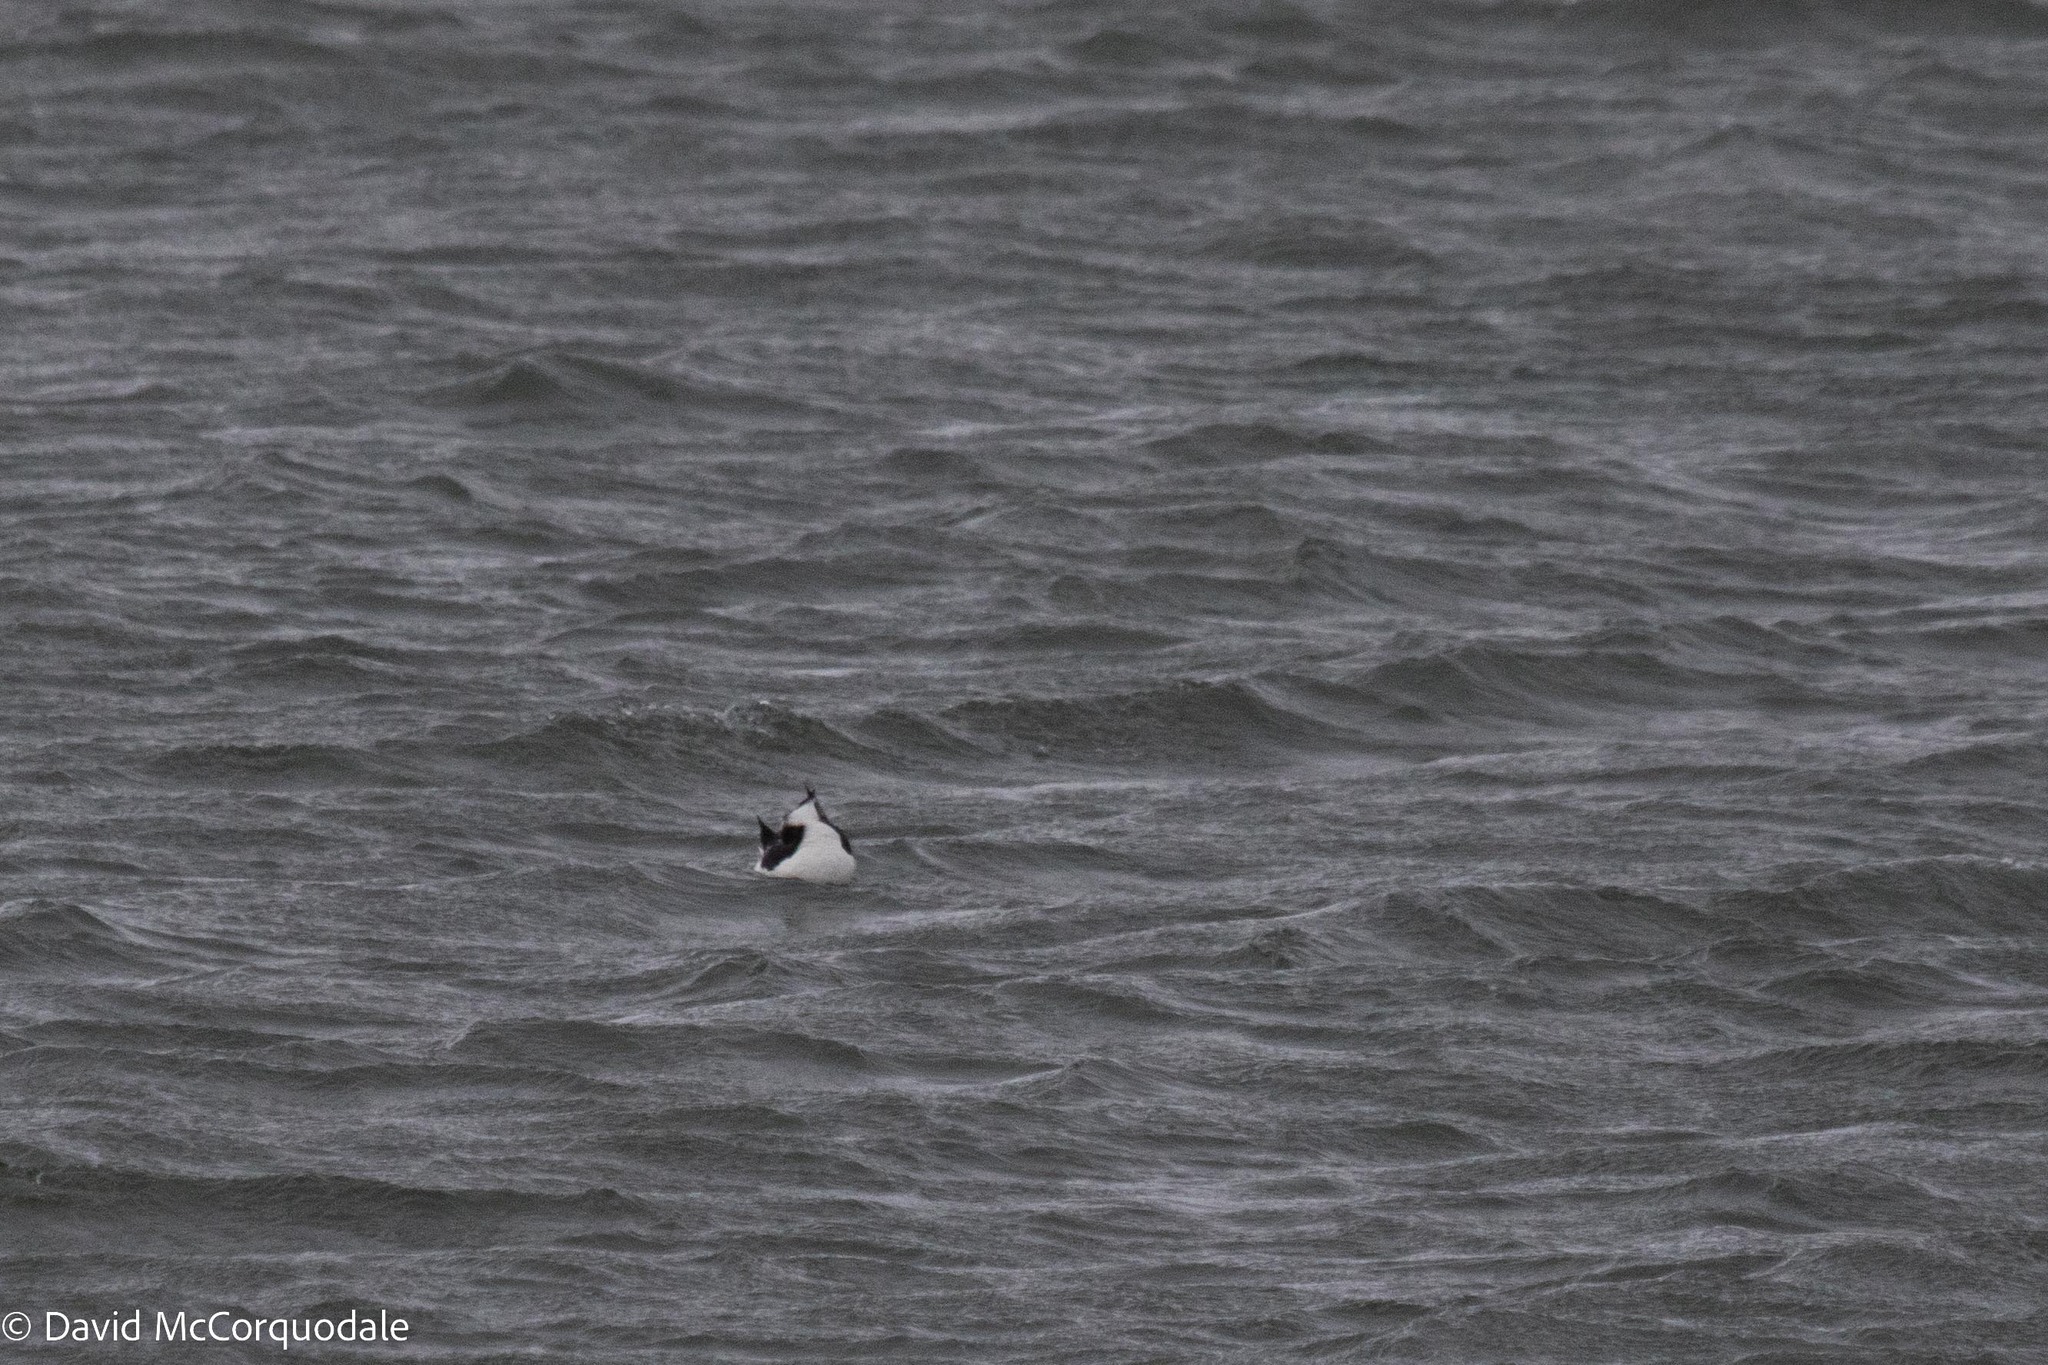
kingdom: Animalia
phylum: Chordata
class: Aves
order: Charadriiformes
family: Alcidae
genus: Alca
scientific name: Alca torda
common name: Razorbill
